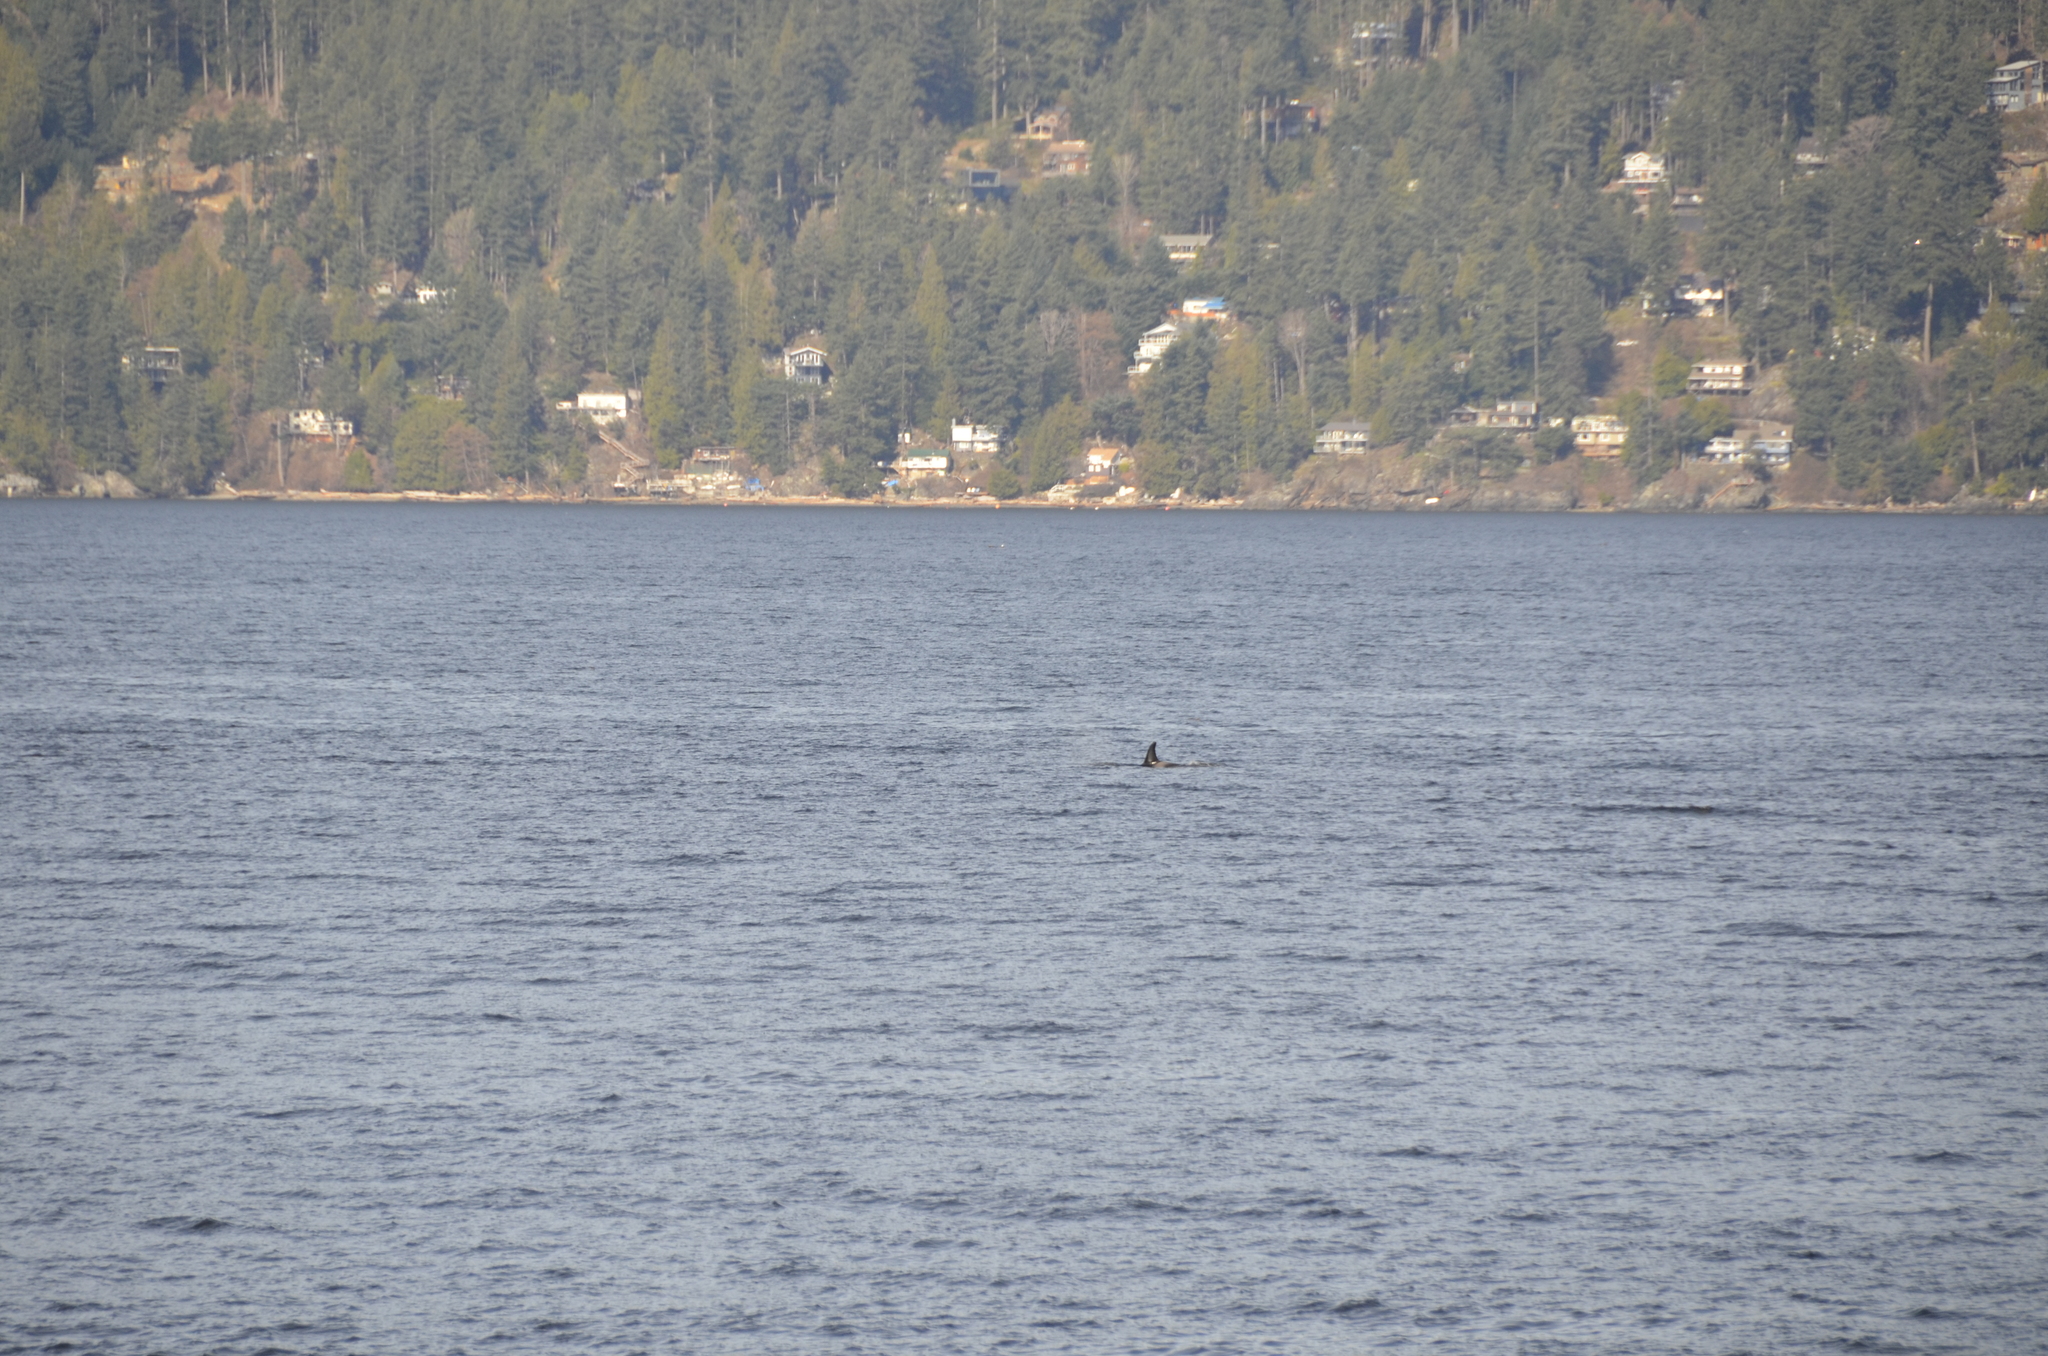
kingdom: Animalia
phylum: Chordata
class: Mammalia
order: Cetacea
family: Delphinidae
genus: Orcinus
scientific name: Orcinus orca
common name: Killer whale
